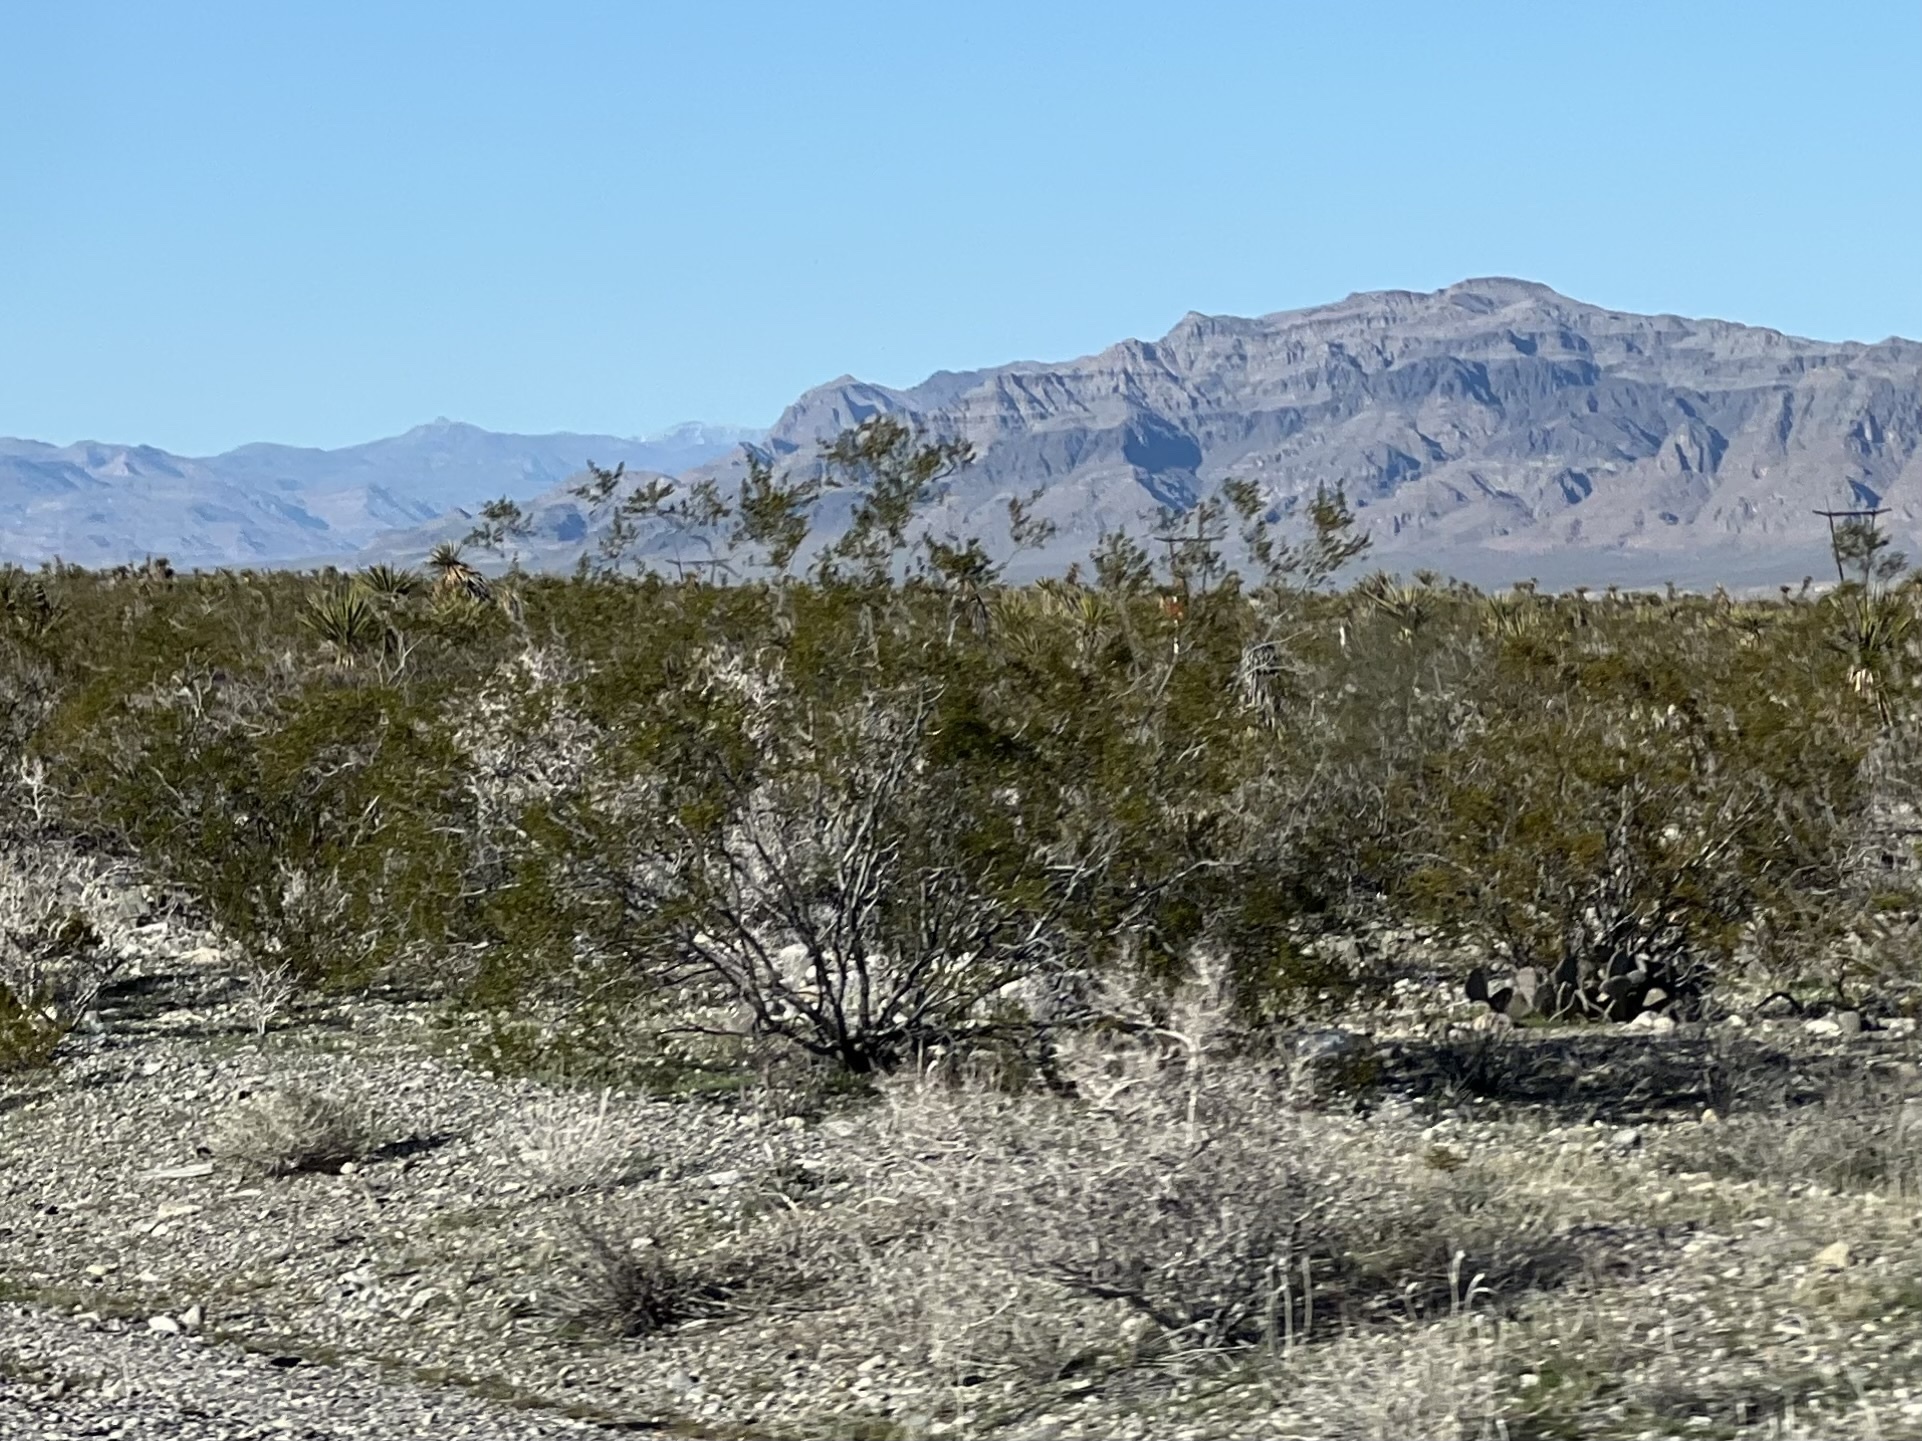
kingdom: Plantae
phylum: Tracheophyta
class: Magnoliopsida
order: Zygophyllales
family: Zygophyllaceae
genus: Larrea
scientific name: Larrea tridentata
